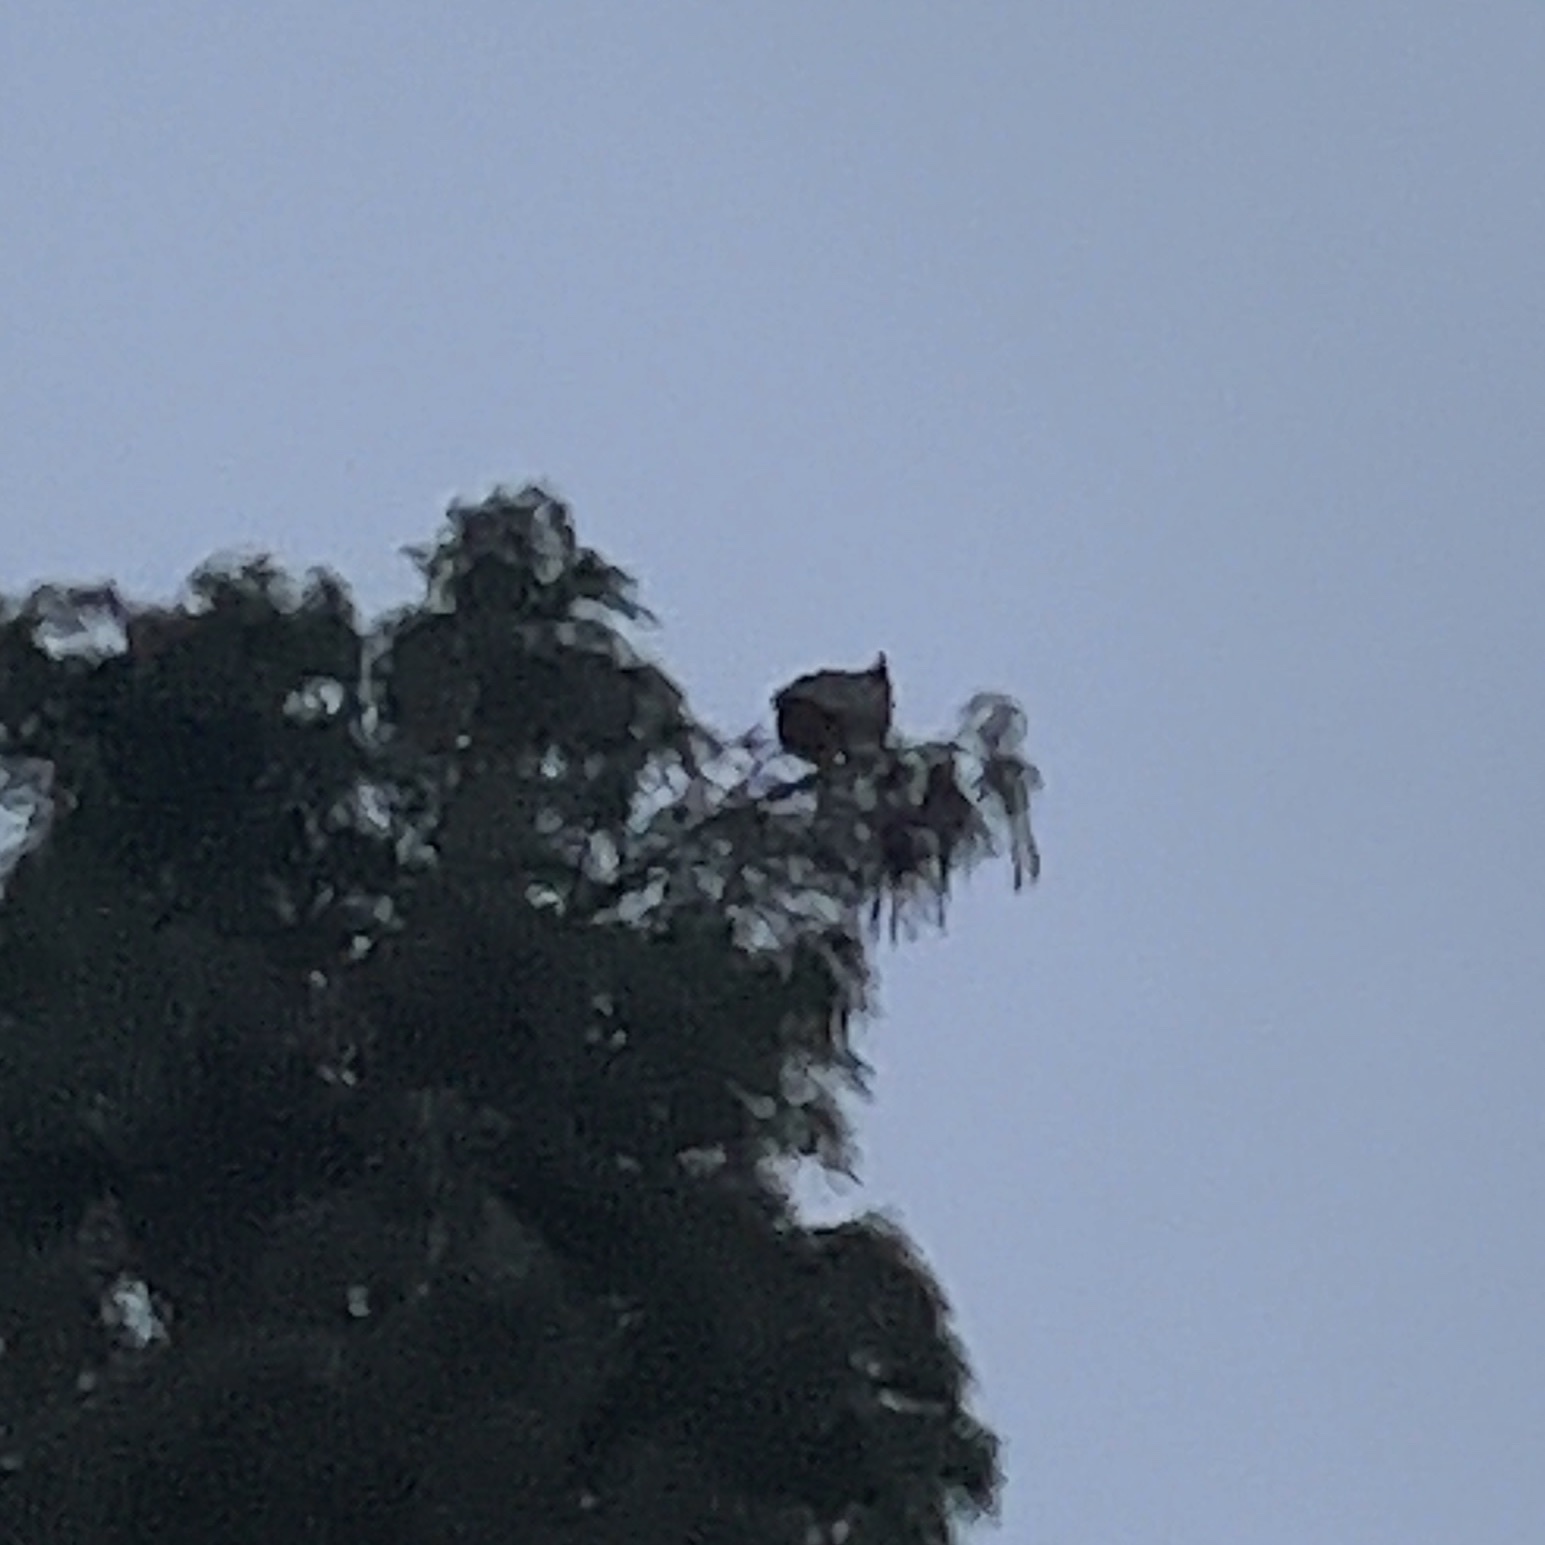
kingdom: Animalia
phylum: Chordata
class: Aves
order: Strigiformes
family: Strigidae
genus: Bubo
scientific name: Bubo virginianus
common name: Great horned owl
